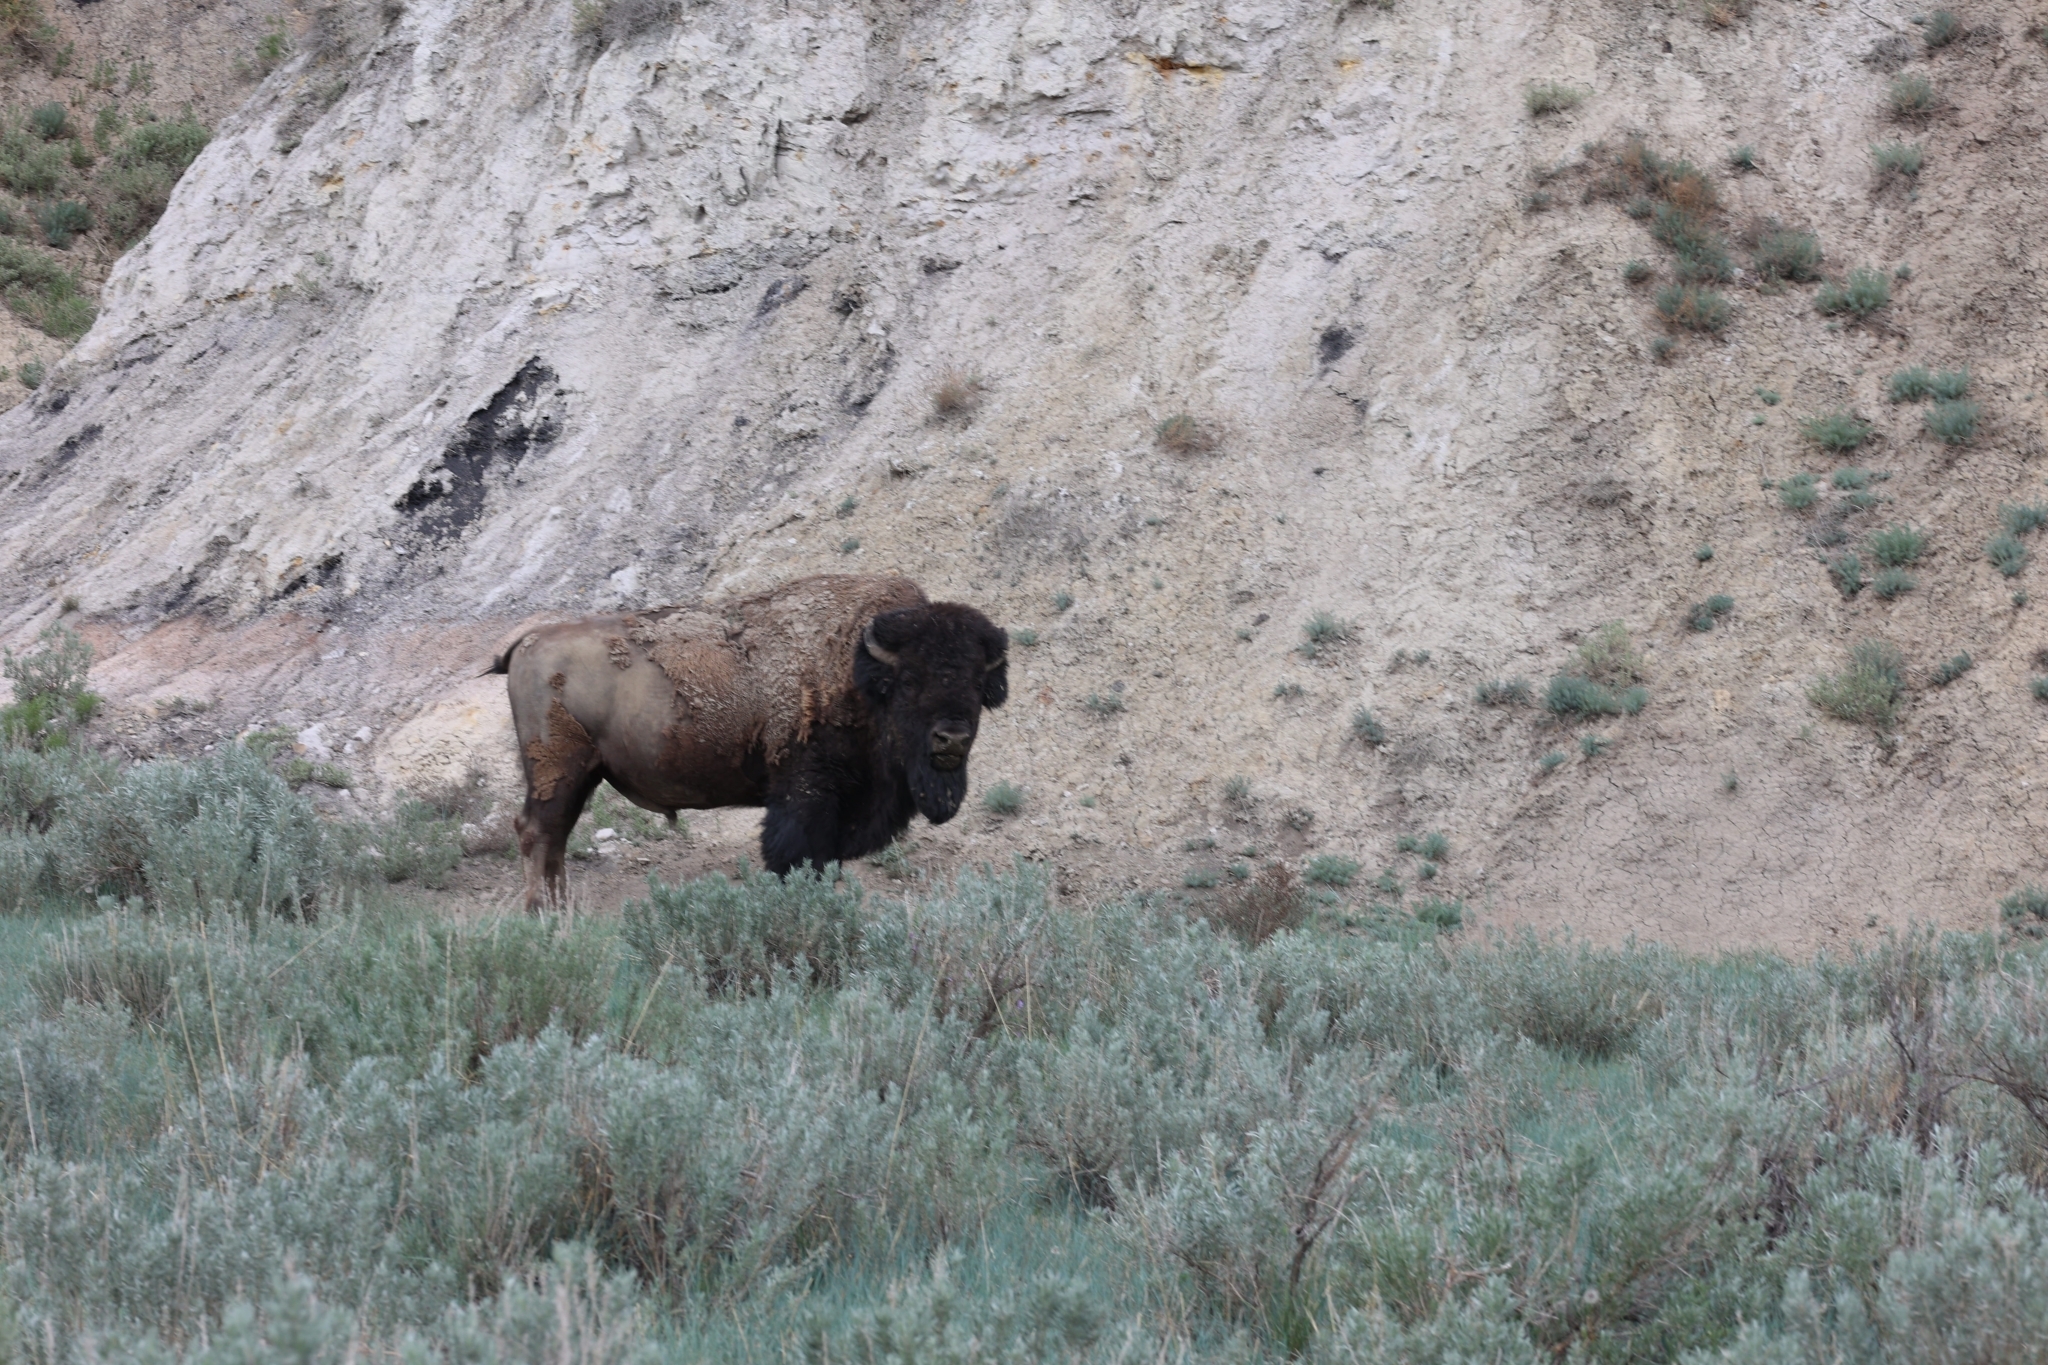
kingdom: Animalia
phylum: Chordata
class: Mammalia
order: Artiodactyla
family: Bovidae
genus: Bison
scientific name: Bison bison
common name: American bison
